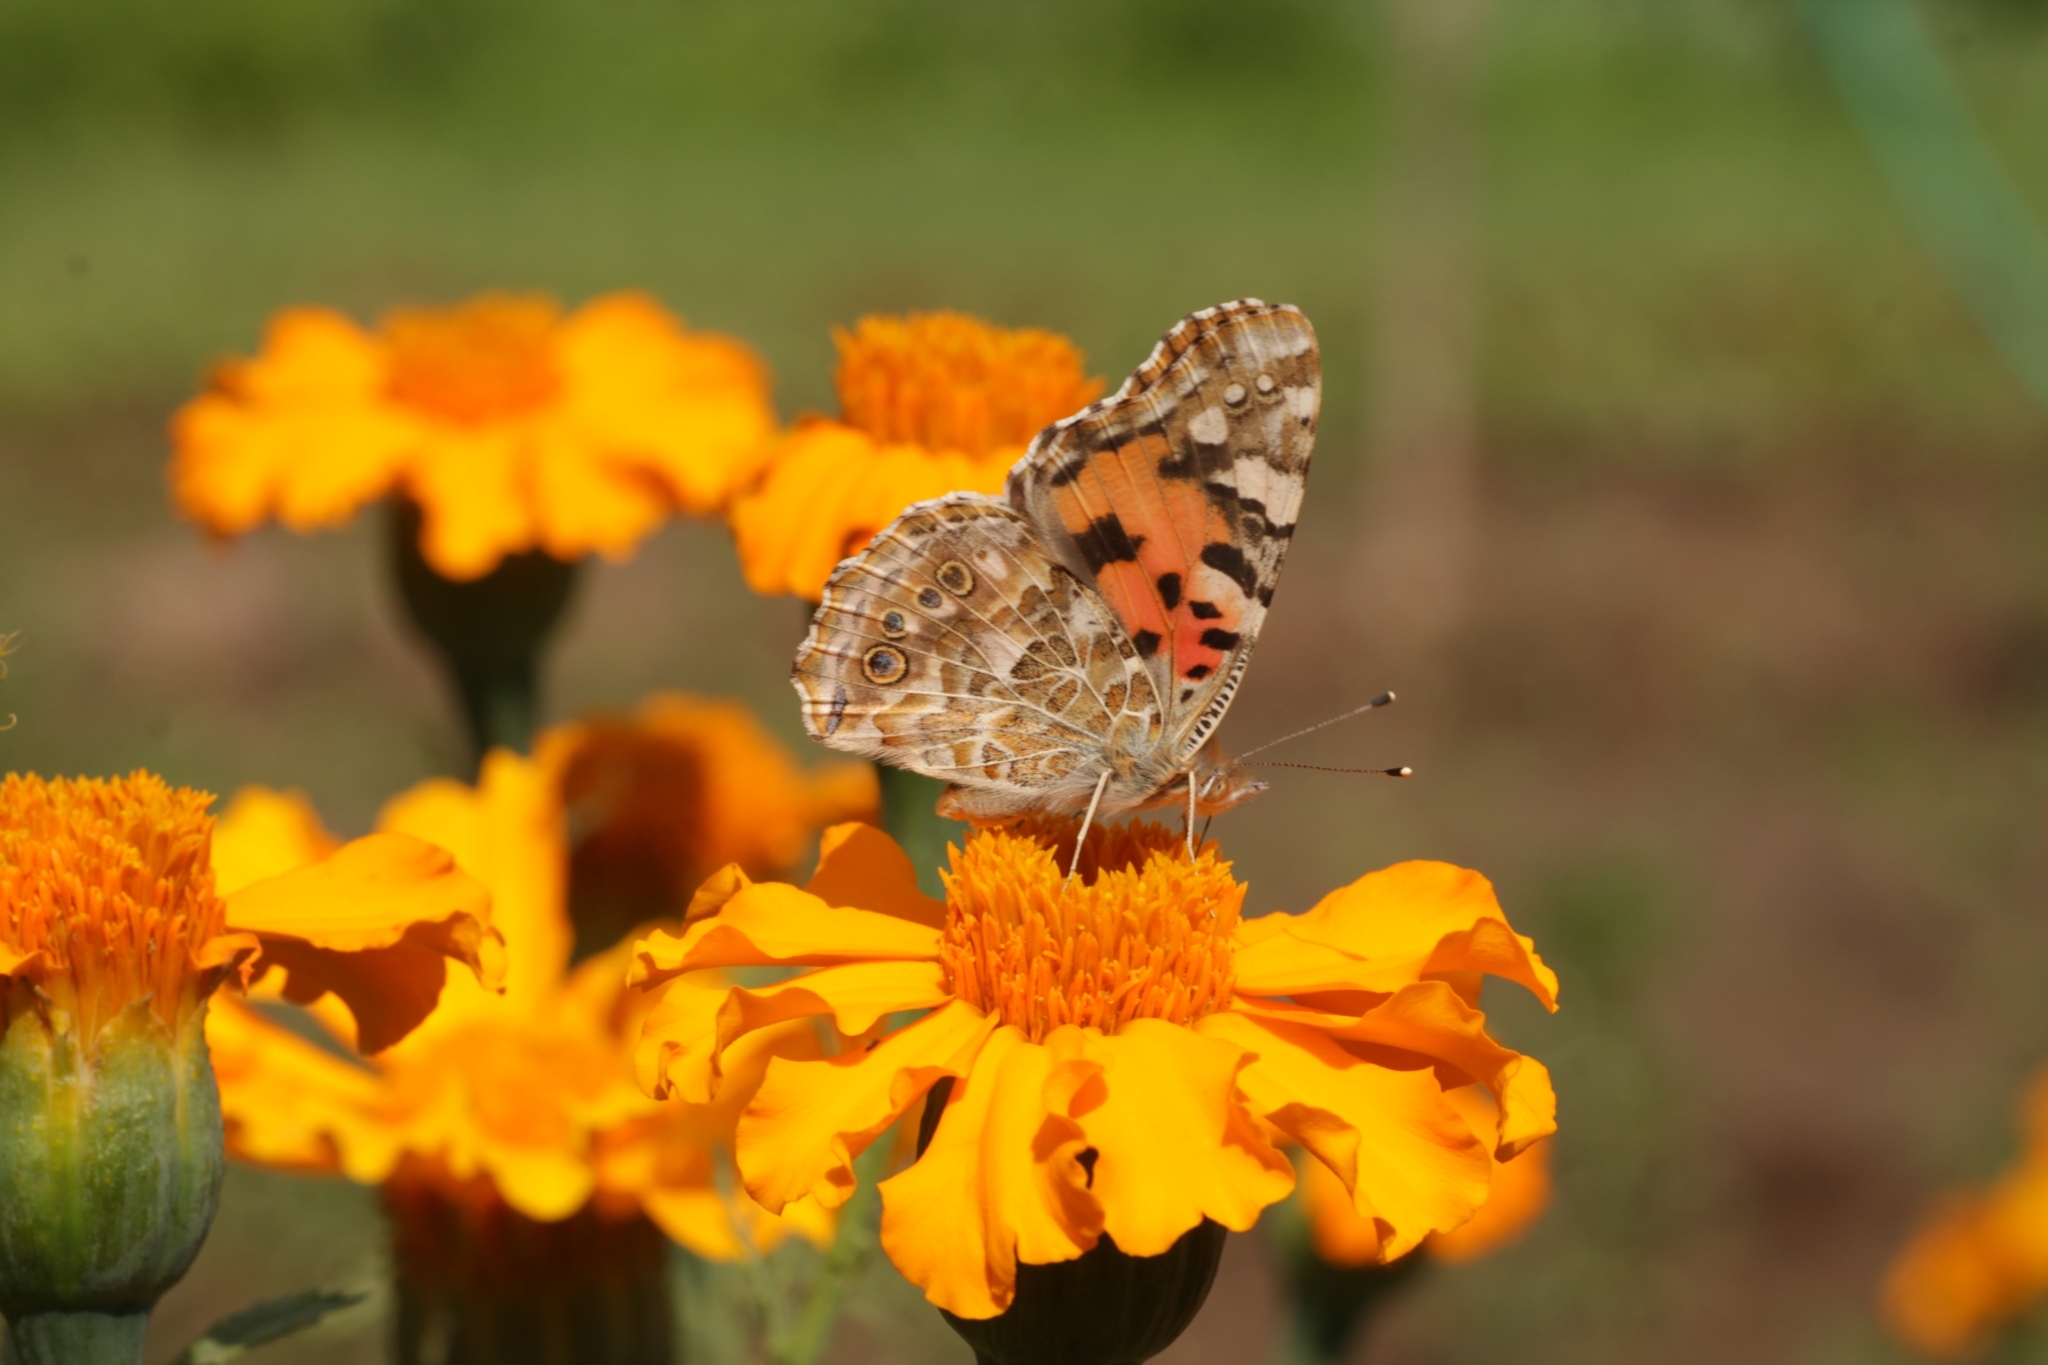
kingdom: Animalia
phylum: Arthropoda
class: Insecta
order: Lepidoptera
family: Nymphalidae
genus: Vanessa
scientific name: Vanessa cardui
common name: Painted lady
